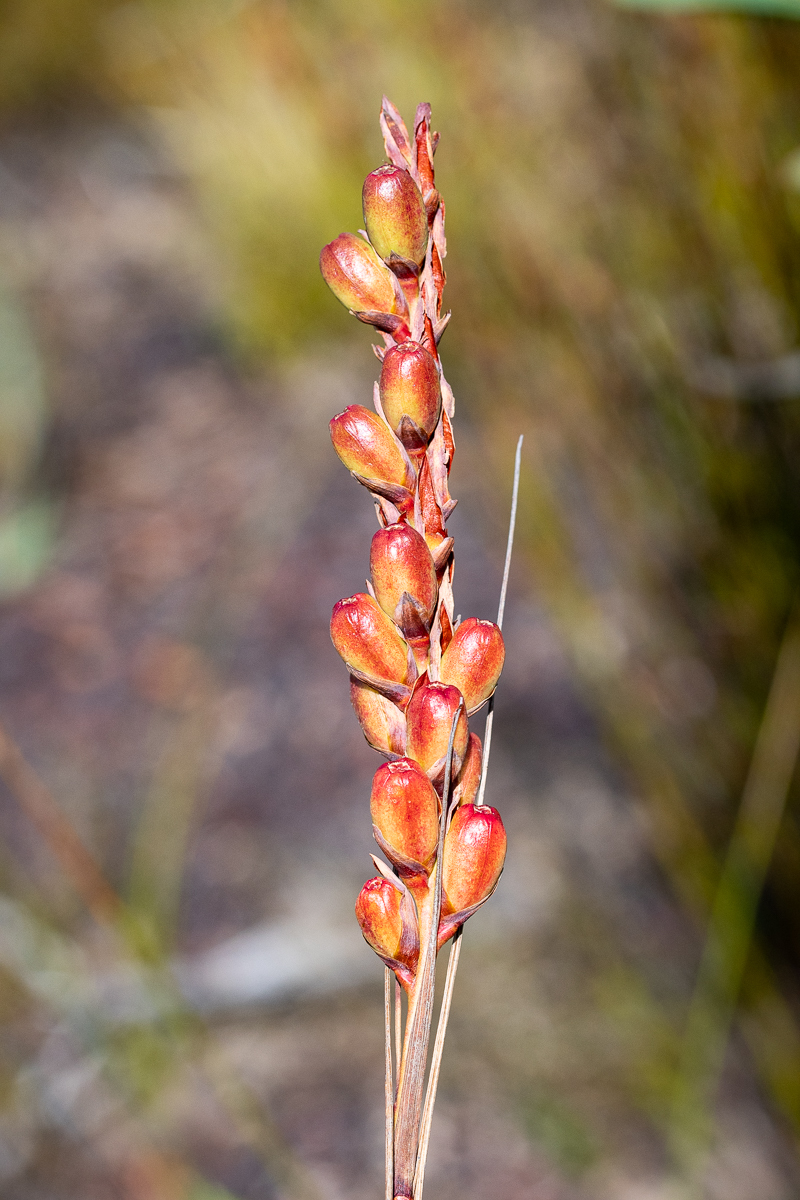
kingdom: Plantae
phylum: Tracheophyta
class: Liliopsida
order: Asparagales
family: Iridaceae
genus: Tritoniopsis
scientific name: Tritoniopsis triticea
